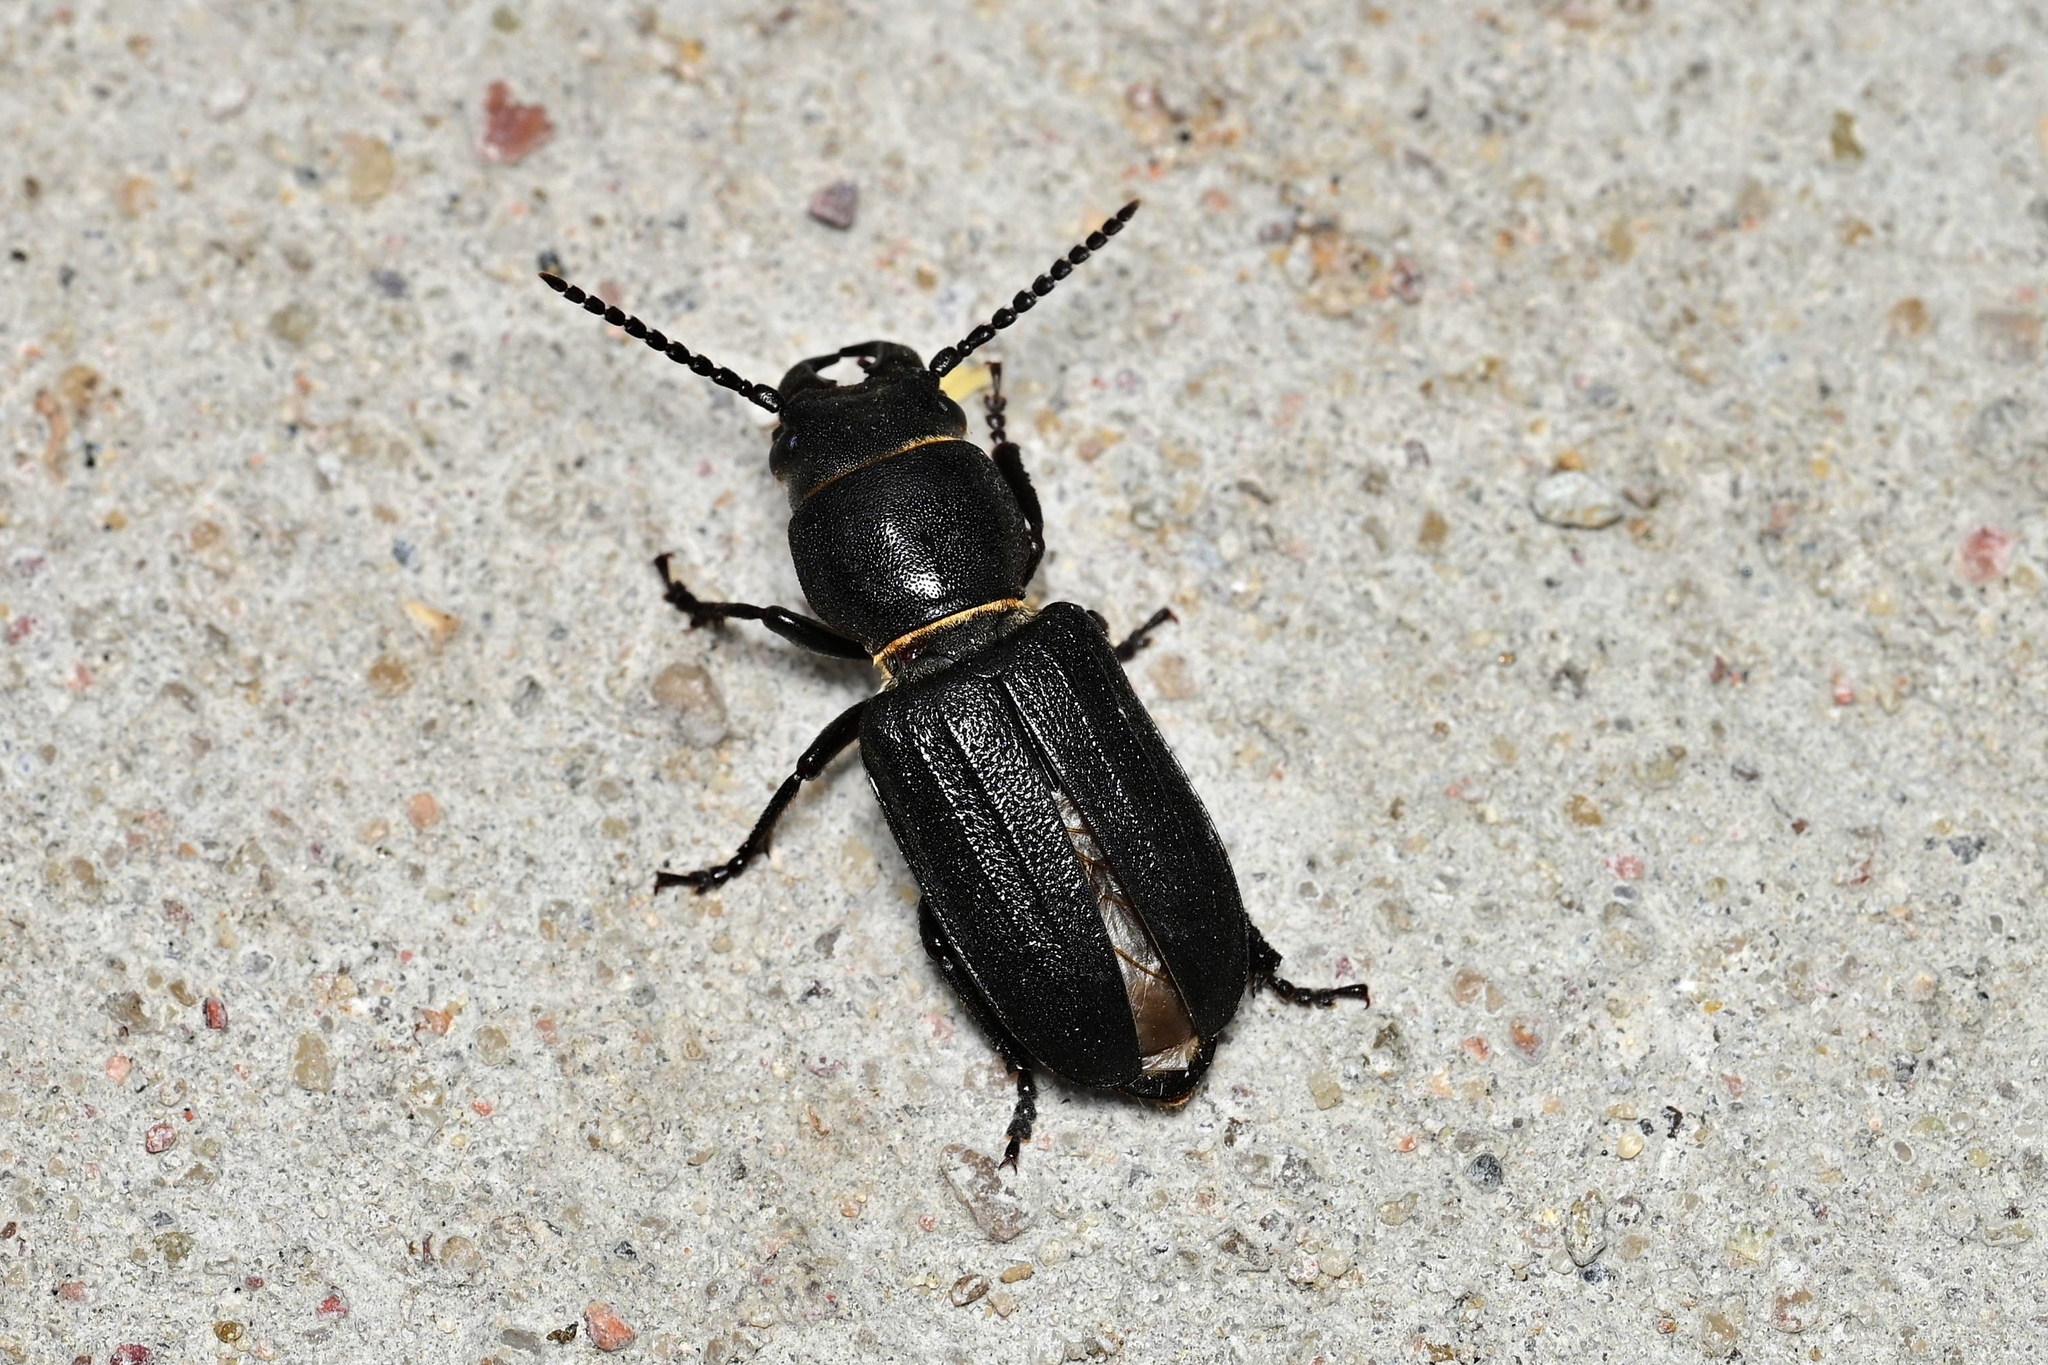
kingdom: Animalia
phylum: Arthropoda
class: Insecta
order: Coleoptera
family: Cerambycidae
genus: Spondylis
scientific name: Spondylis buprestoides
